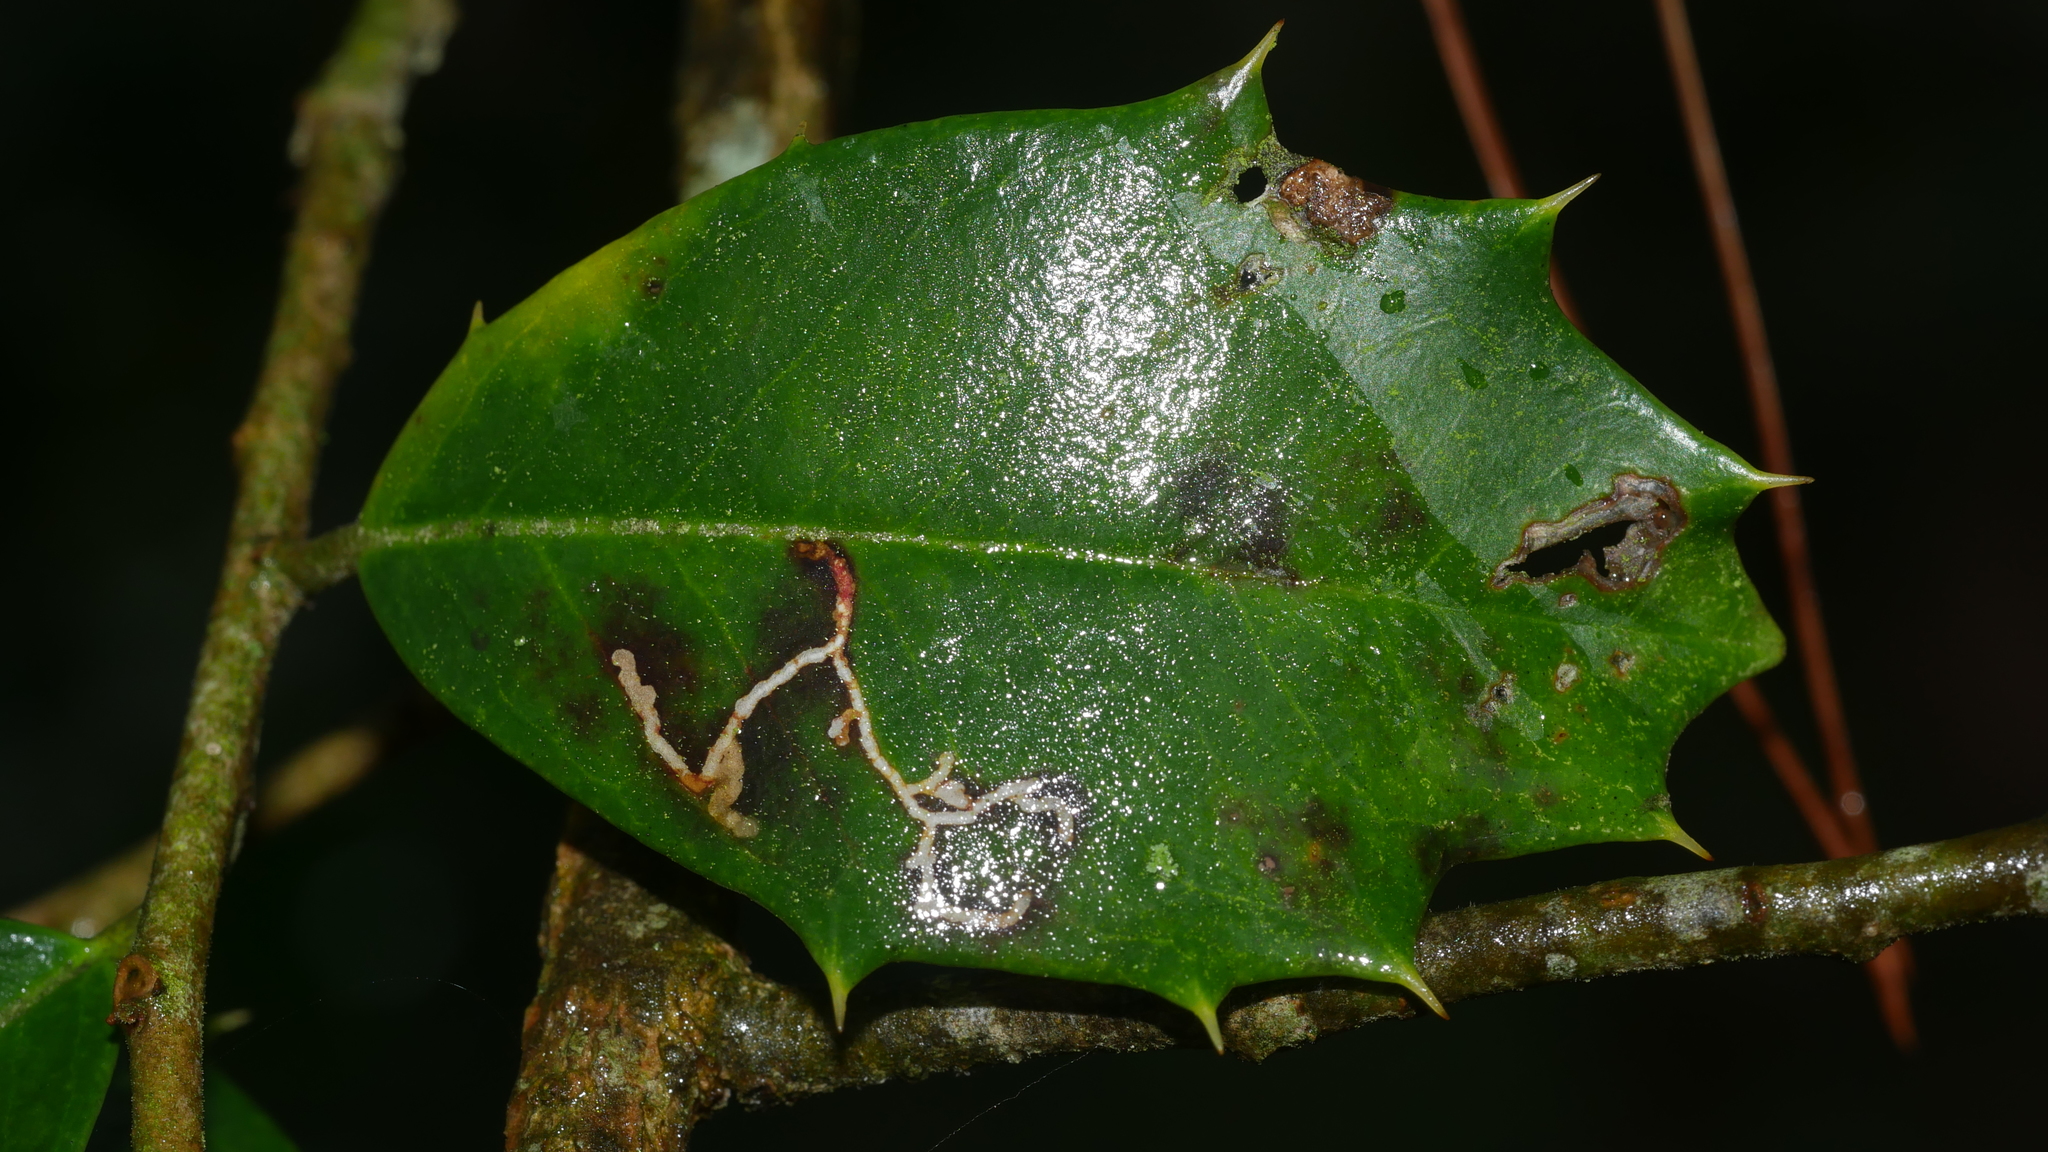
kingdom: Animalia
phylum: Arthropoda
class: Insecta
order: Lepidoptera
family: Tortricidae
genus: Rhopobota
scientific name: Rhopobota
